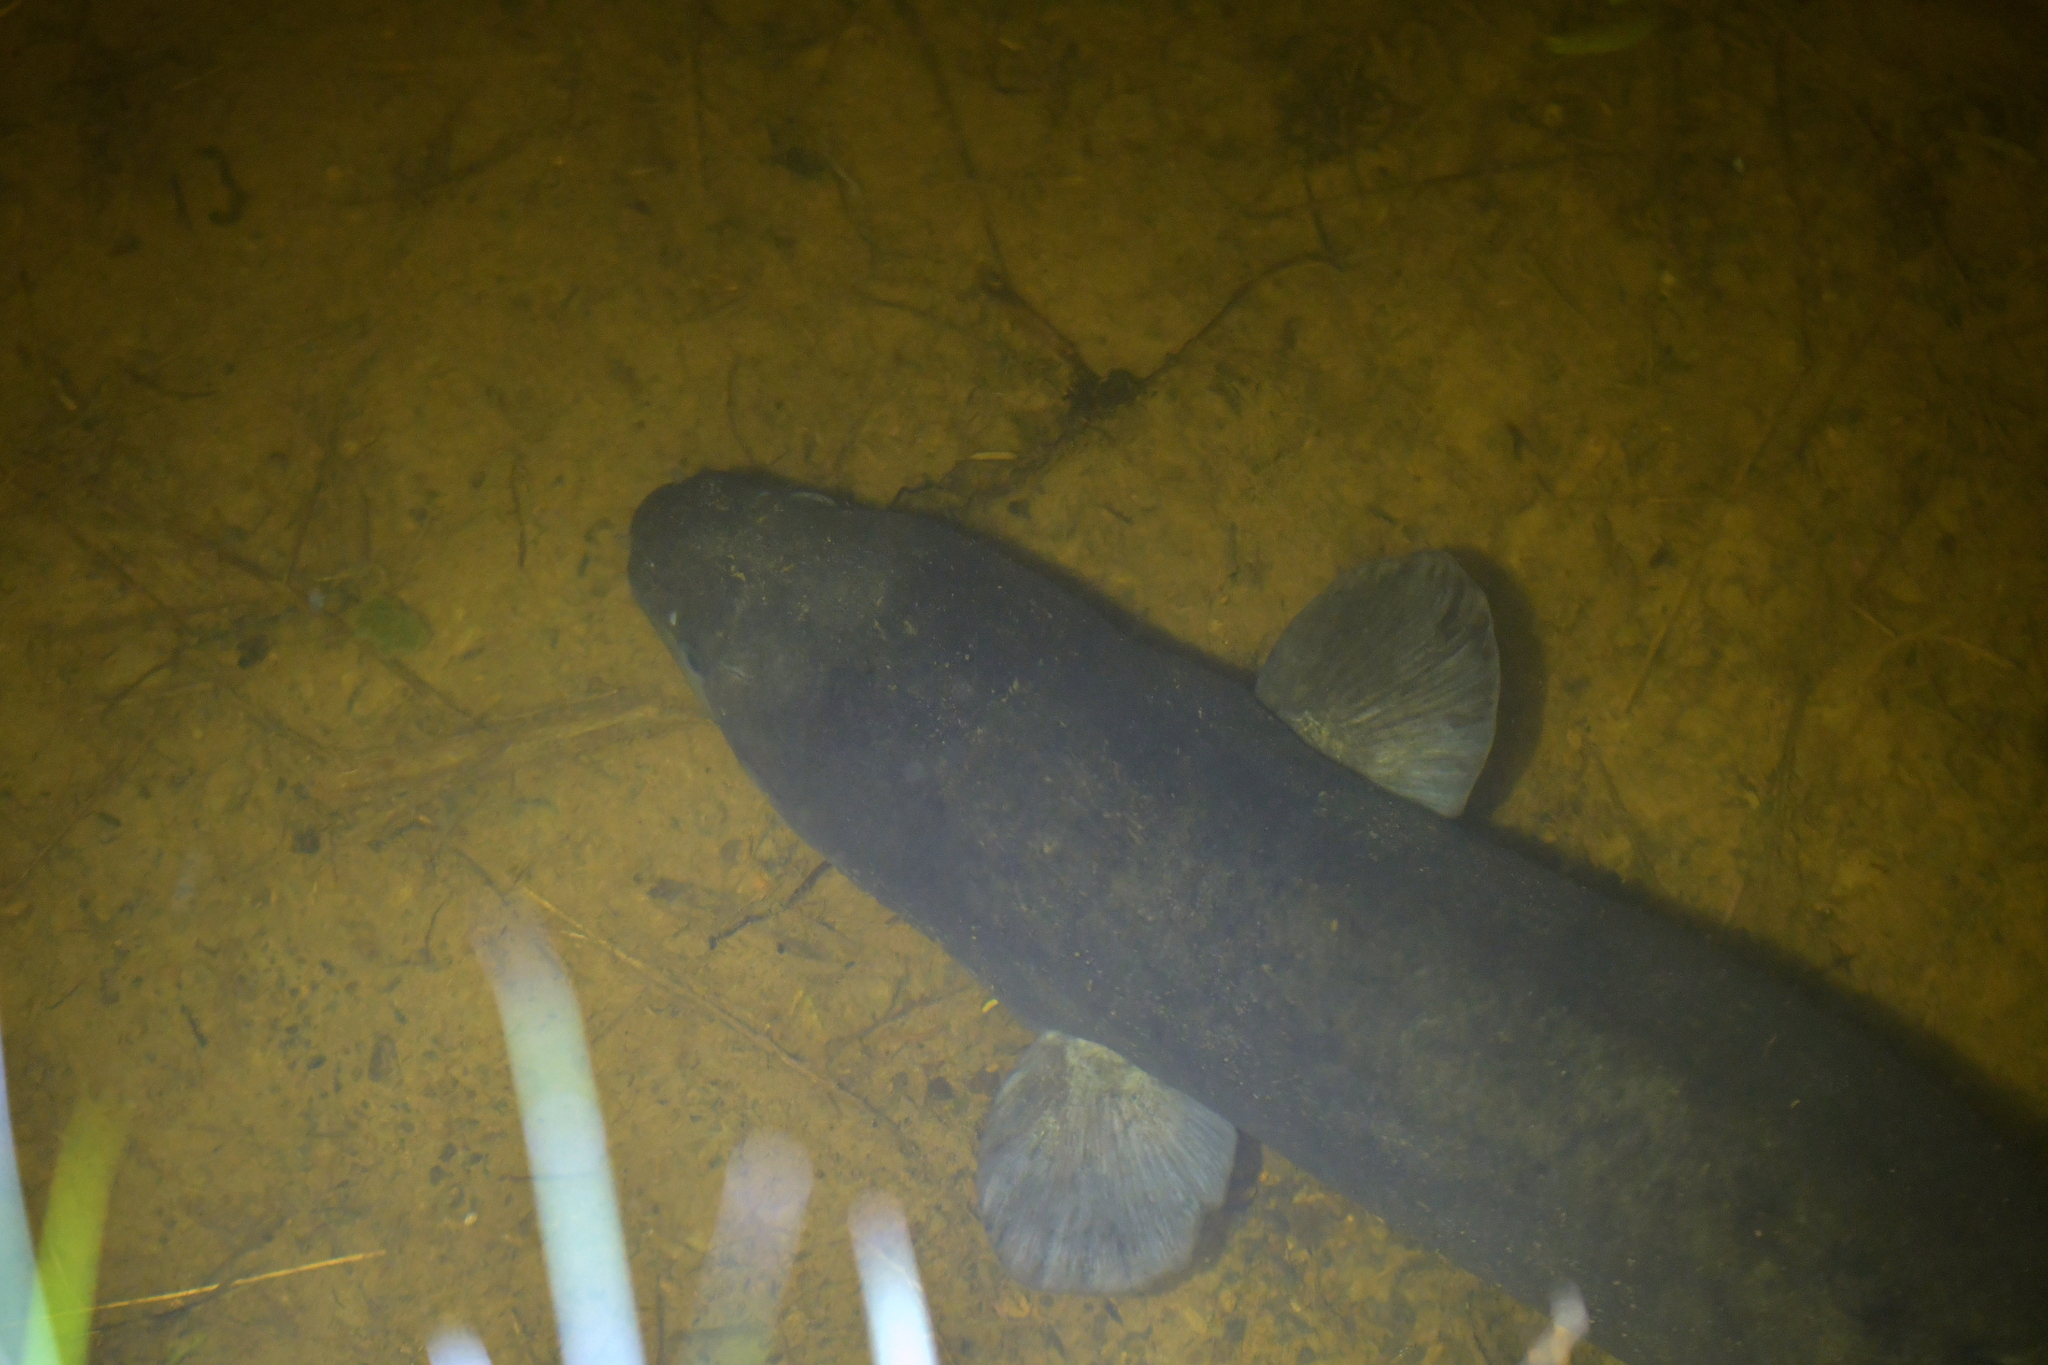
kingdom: Animalia
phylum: Chordata
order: Anguilliformes
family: Anguillidae
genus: Anguilla
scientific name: Anguilla dieffenbachii
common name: New zealand longfin eel
